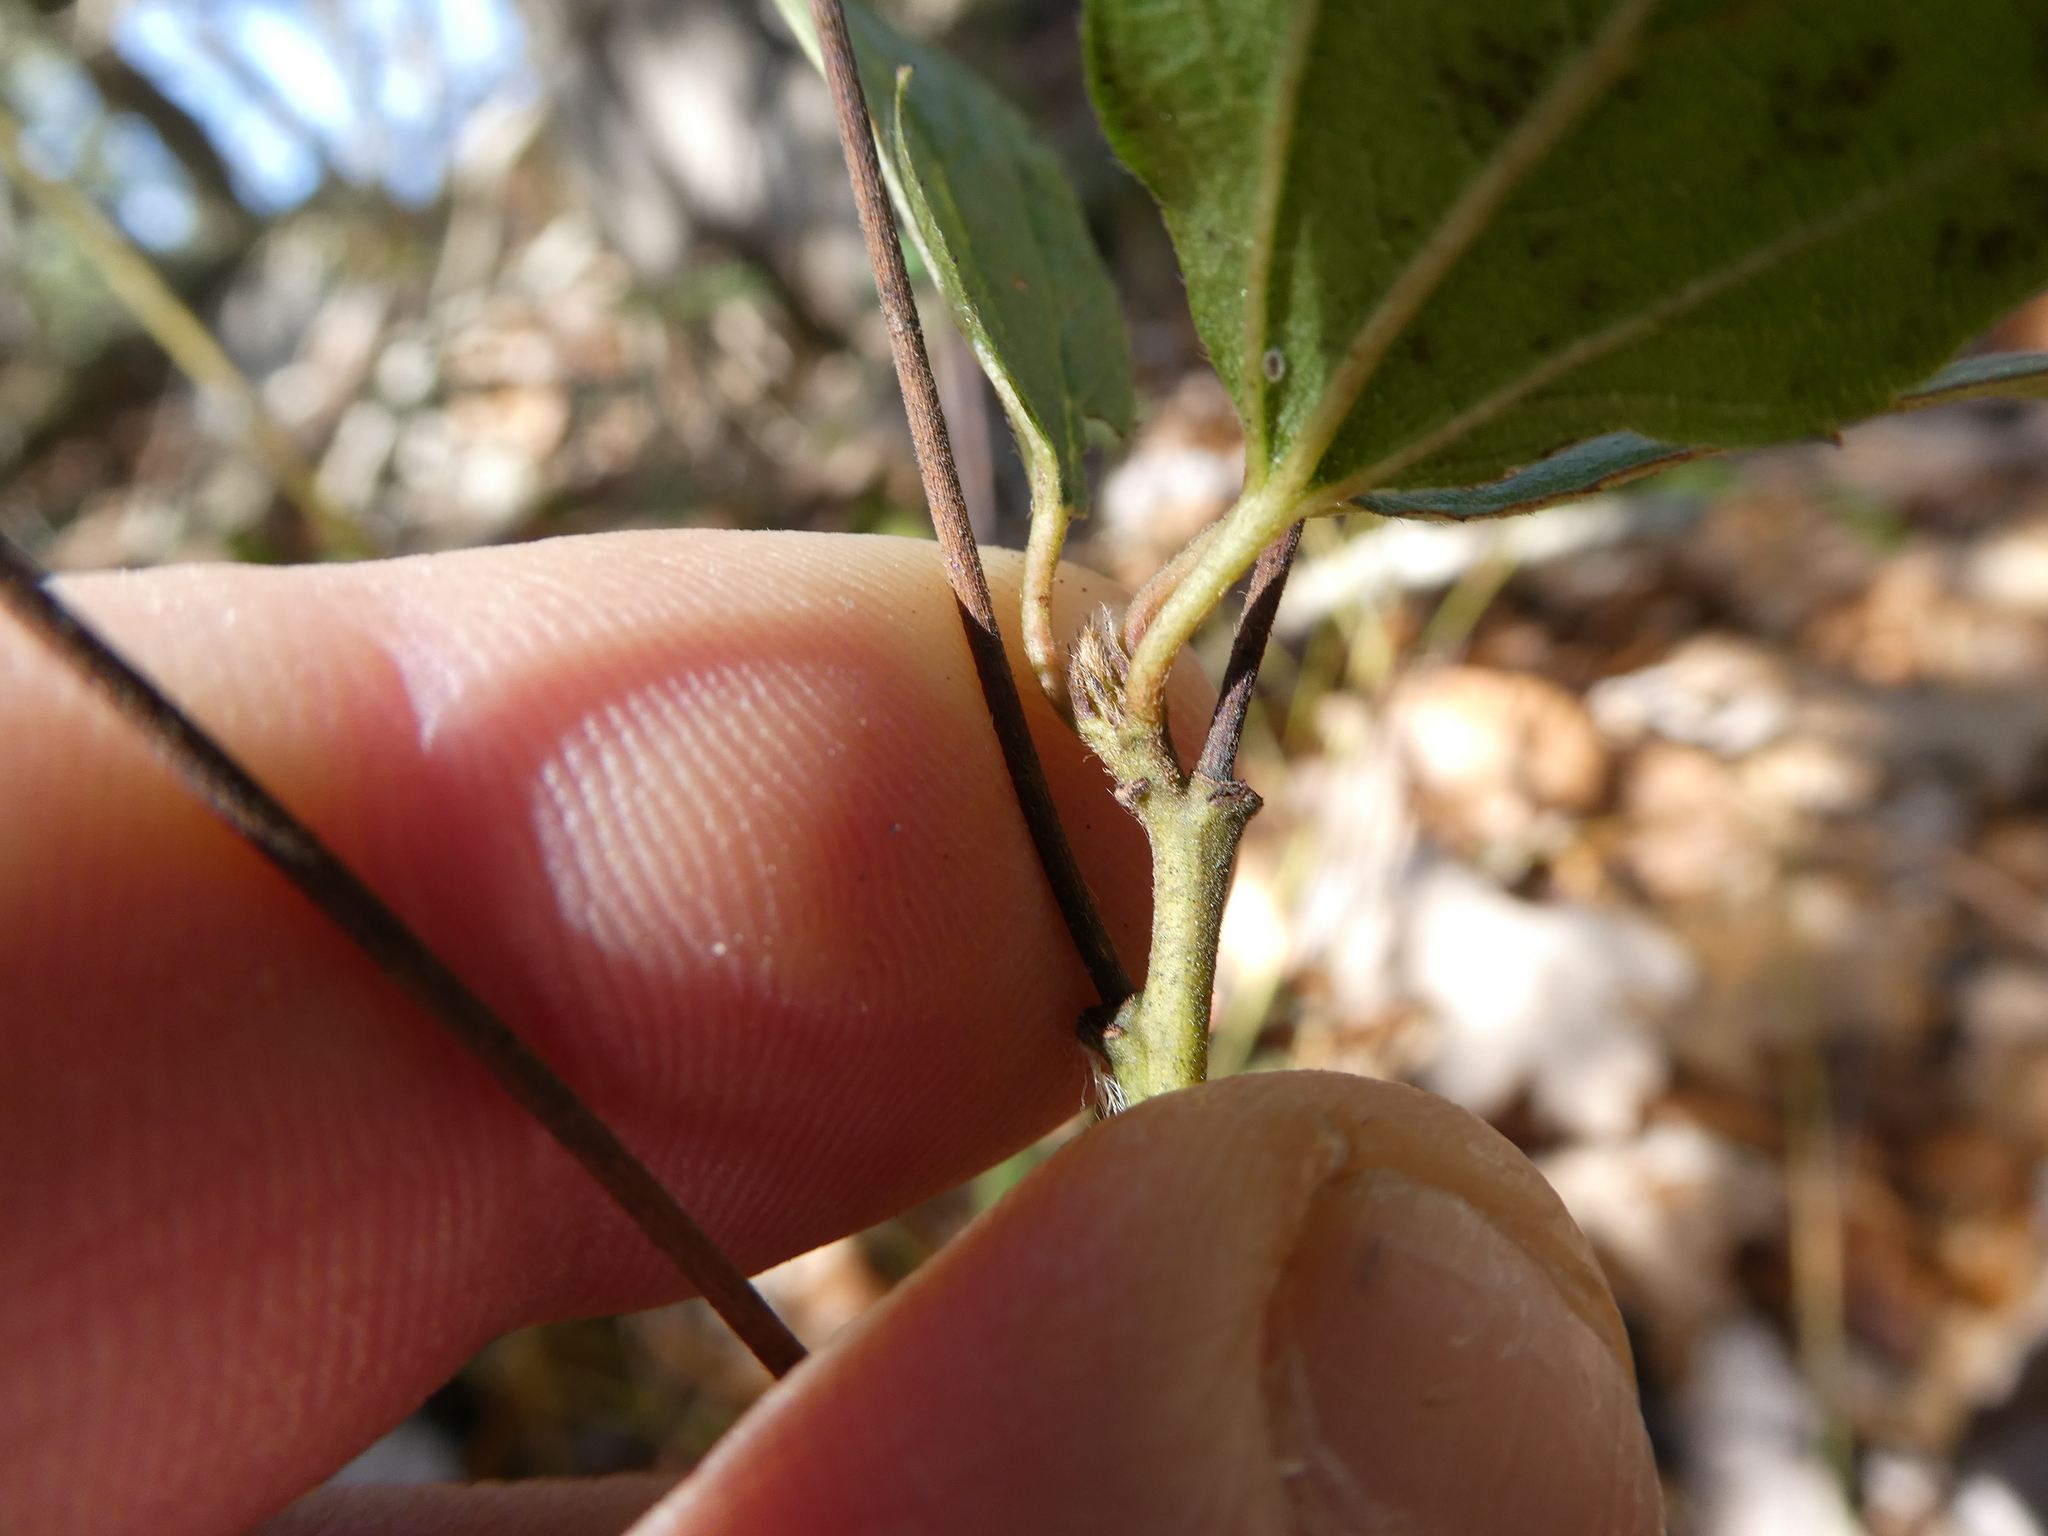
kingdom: Plantae
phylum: Tracheophyta
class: Magnoliopsida
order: Rosales
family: Rhamnaceae
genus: Ceanothus
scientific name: Ceanothus americanus
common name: Redroot
